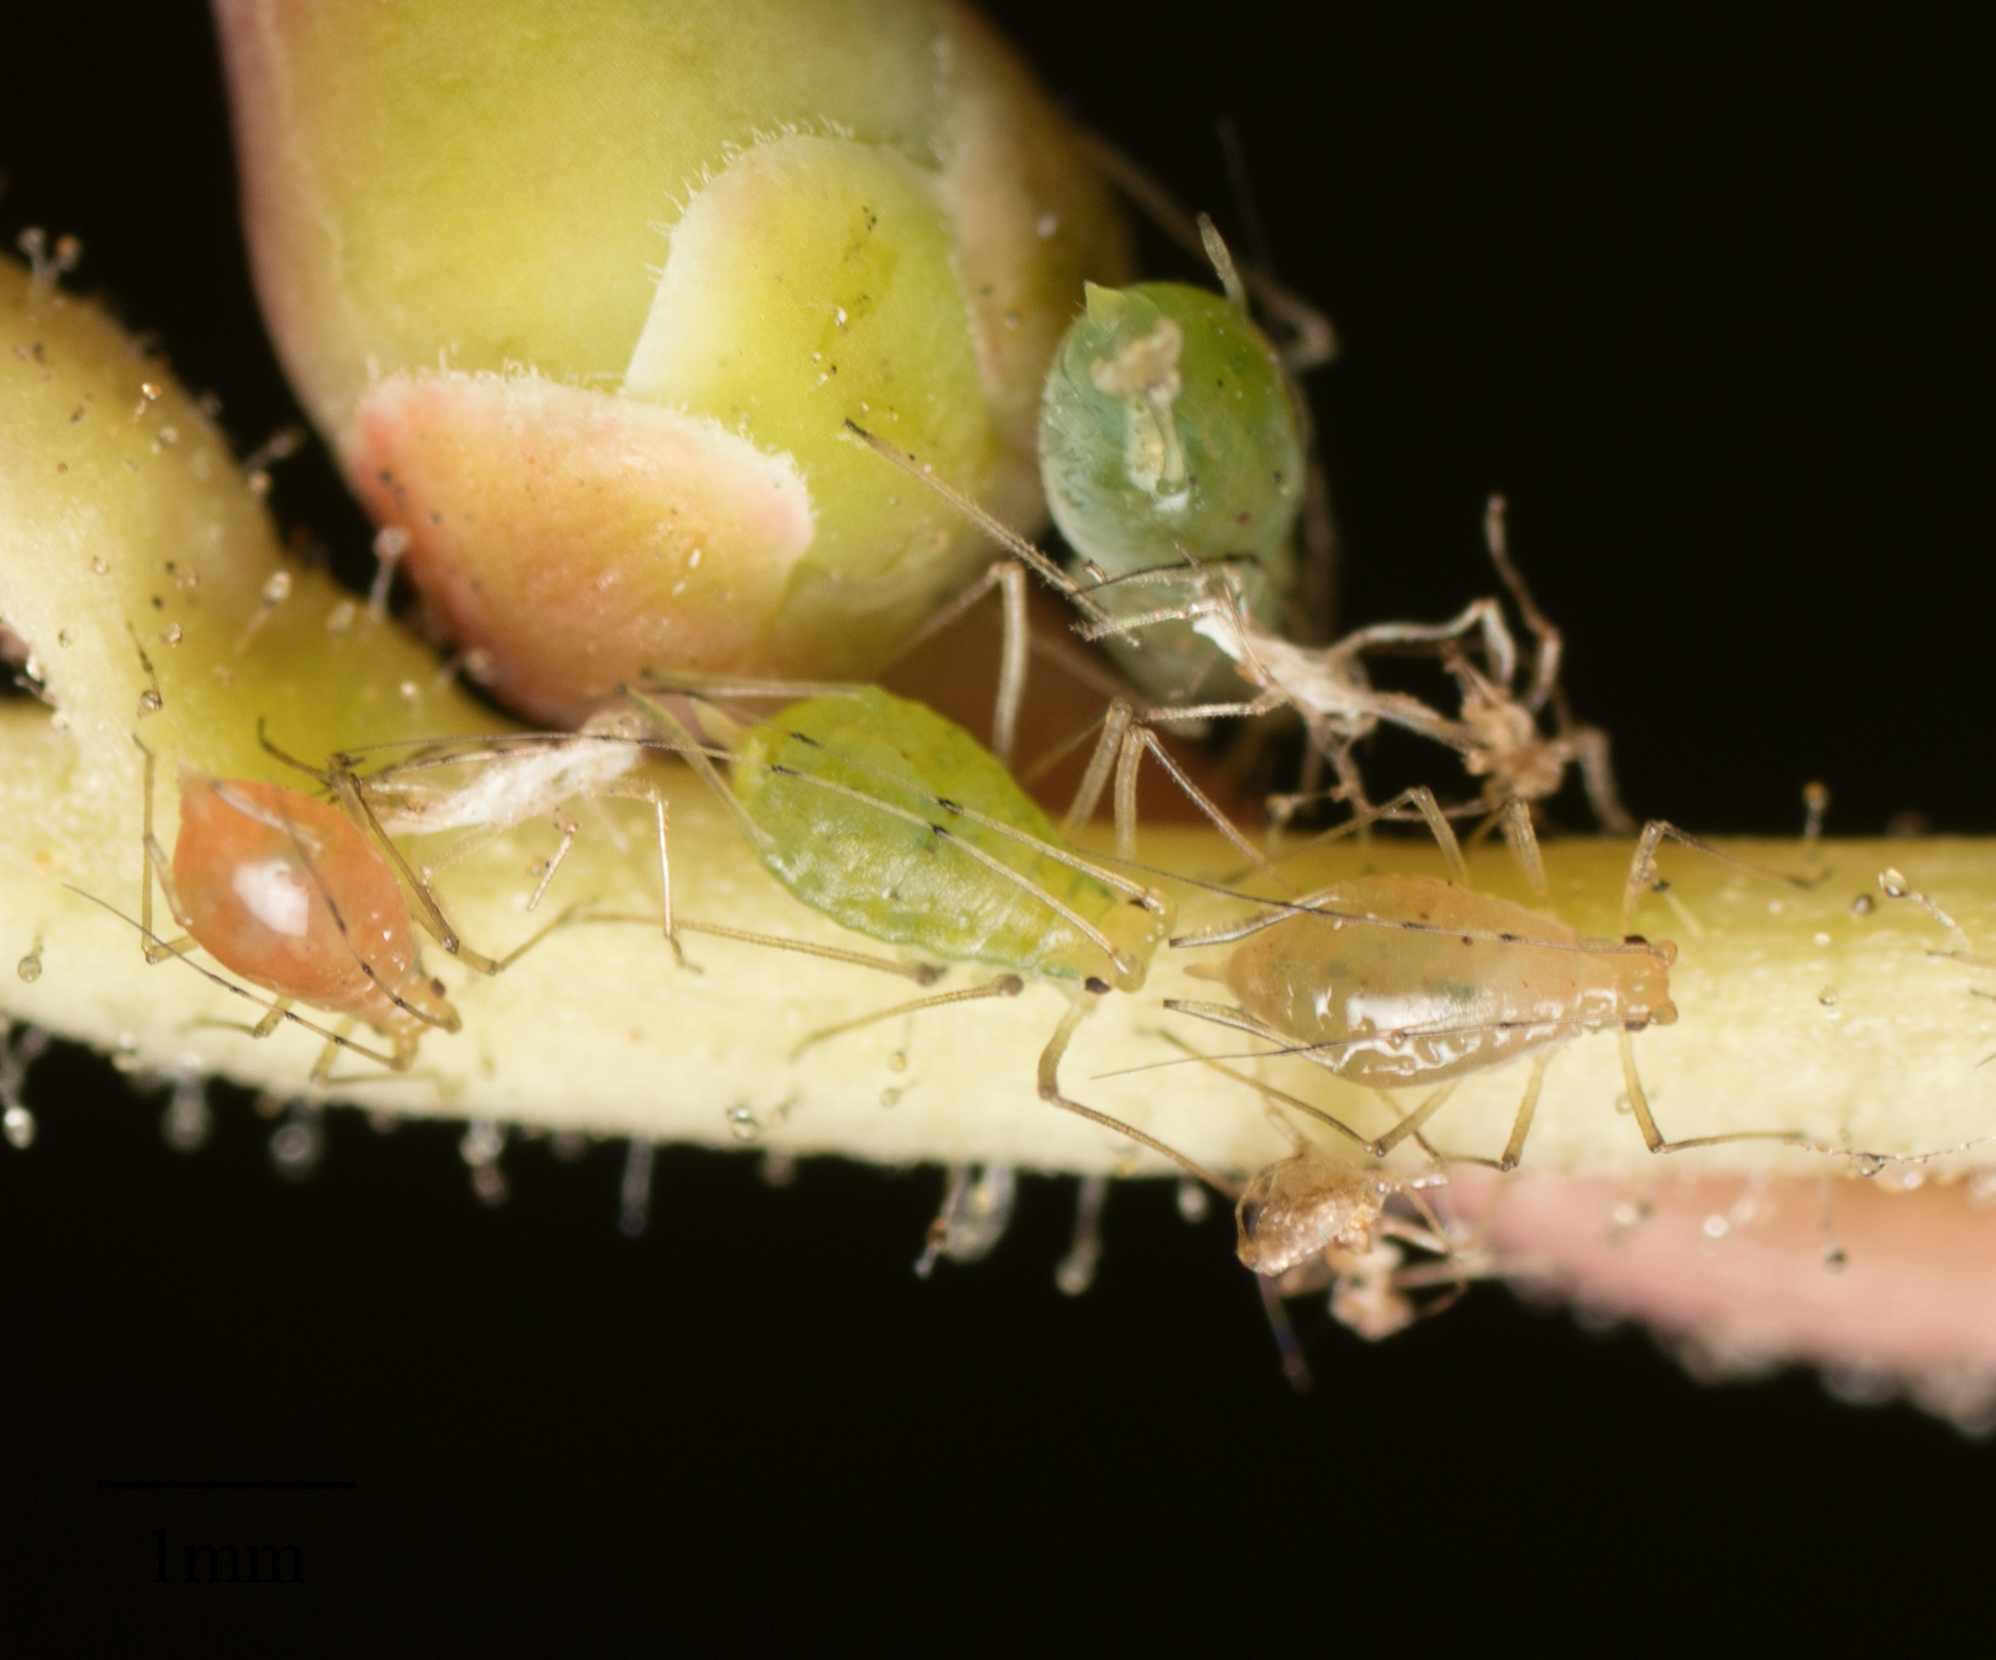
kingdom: Animalia
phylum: Arthropoda
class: Insecta
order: Hemiptera
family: Aphididae
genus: Wahlgreniella
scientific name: Wahlgreniella nervata
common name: Pale green aphid
